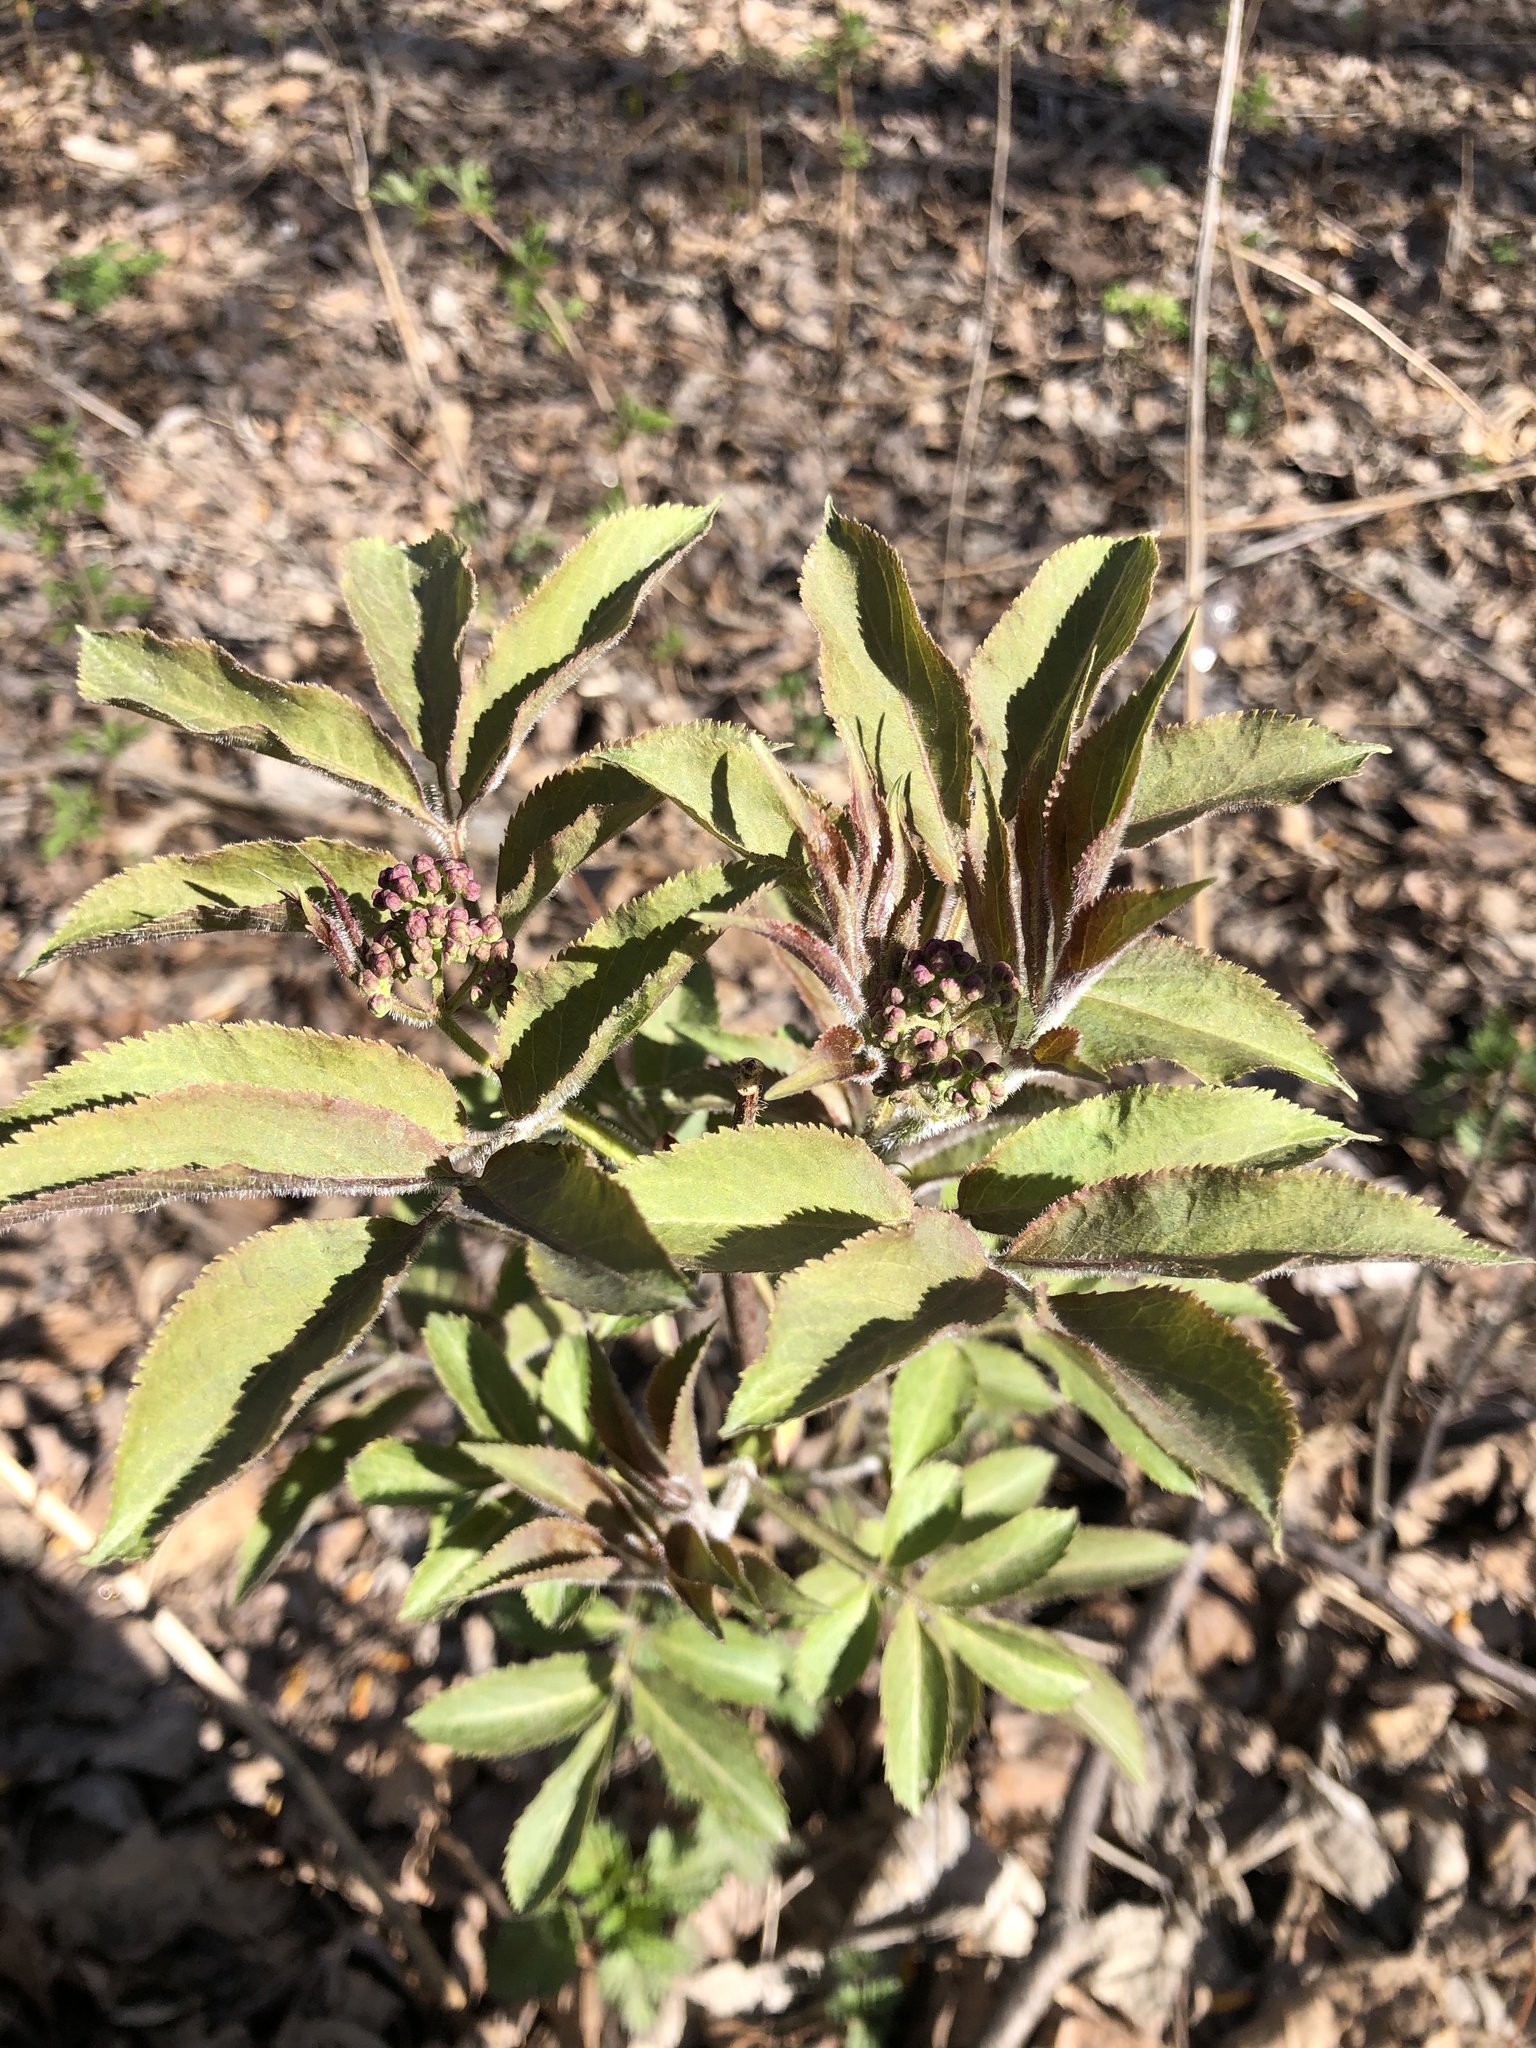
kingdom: Plantae
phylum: Tracheophyta
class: Magnoliopsida
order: Dipsacales
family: Viburnaceae
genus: Sambucus
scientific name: Sambucus sibirica
